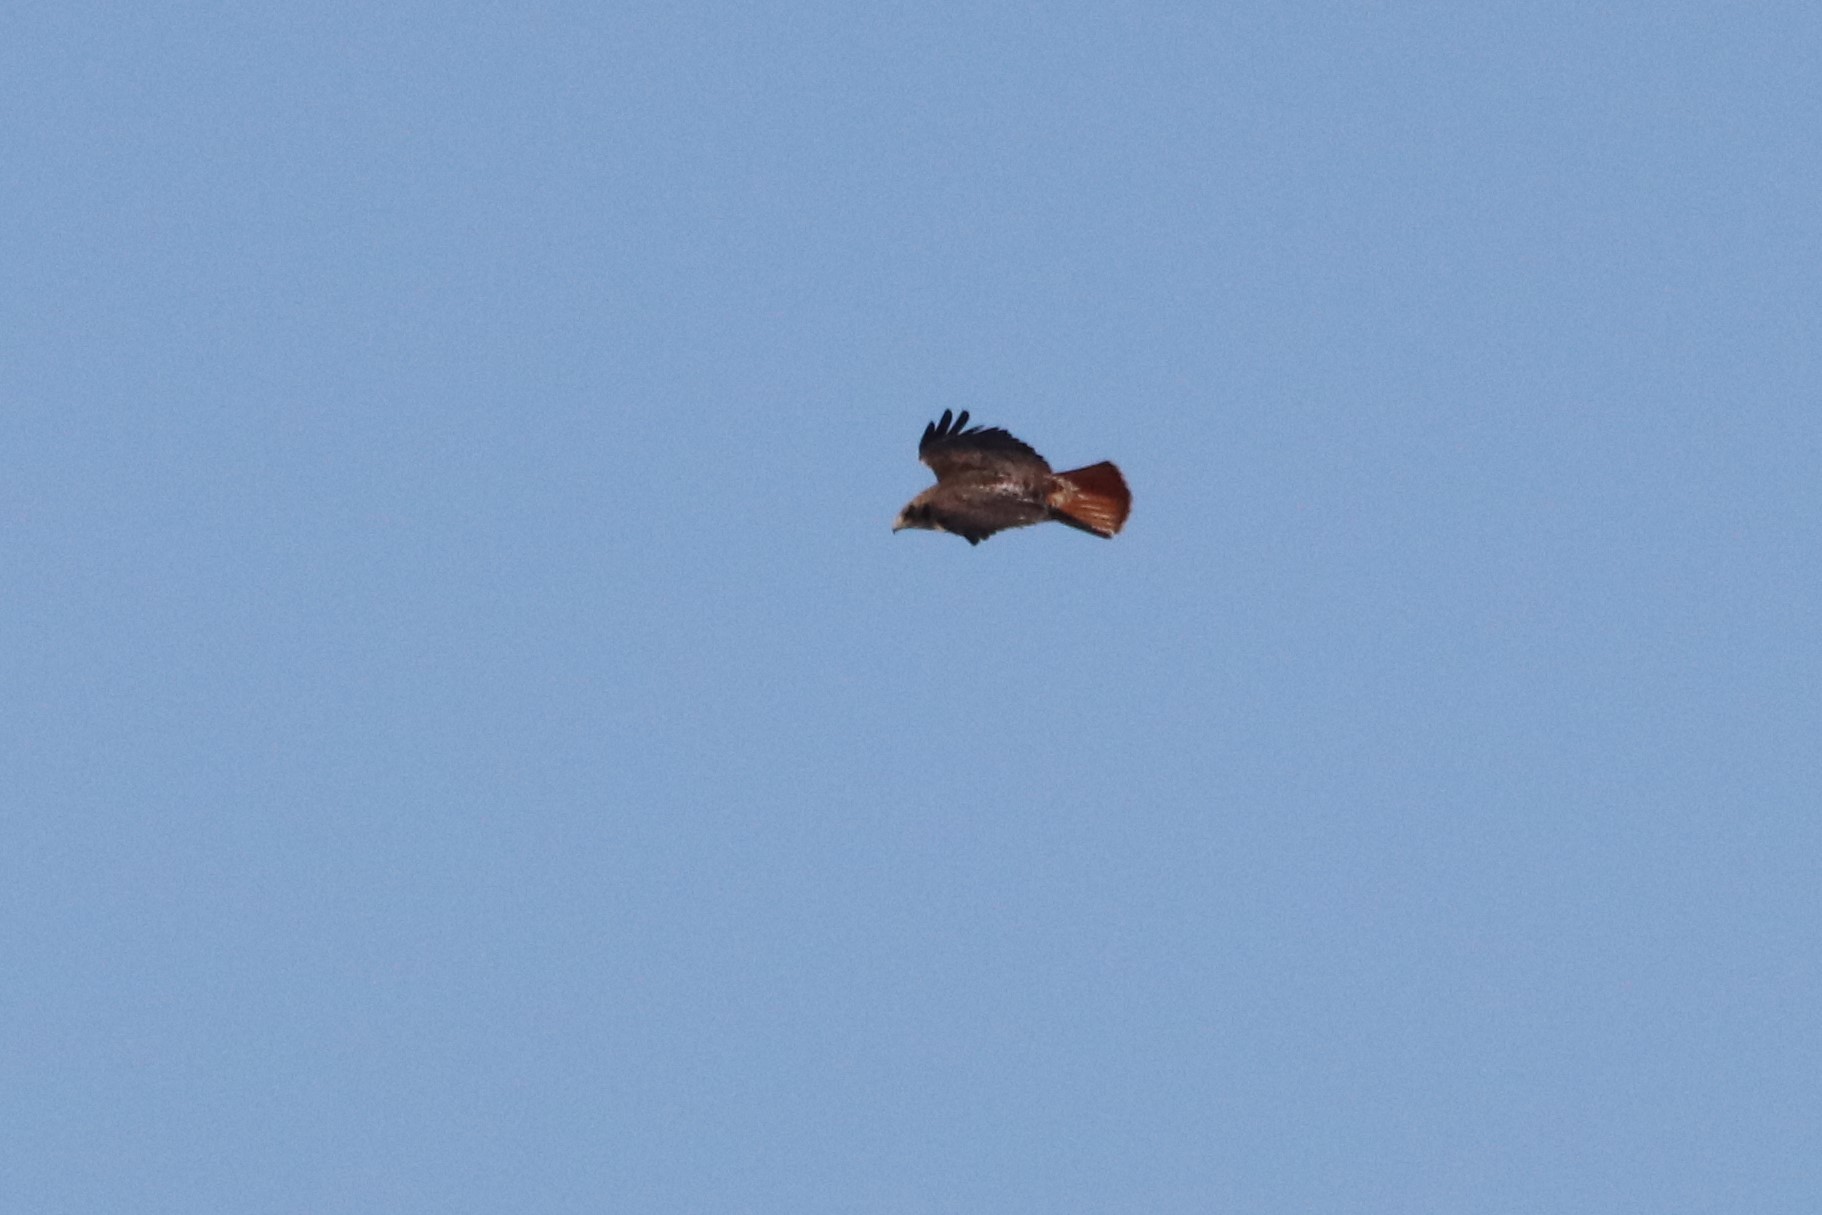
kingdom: Animalia
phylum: Chordata
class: Aves
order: Accipitriformes
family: Accipitridae
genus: Buteo
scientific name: Buteo jamaicensis
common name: Red-tailed hawk
